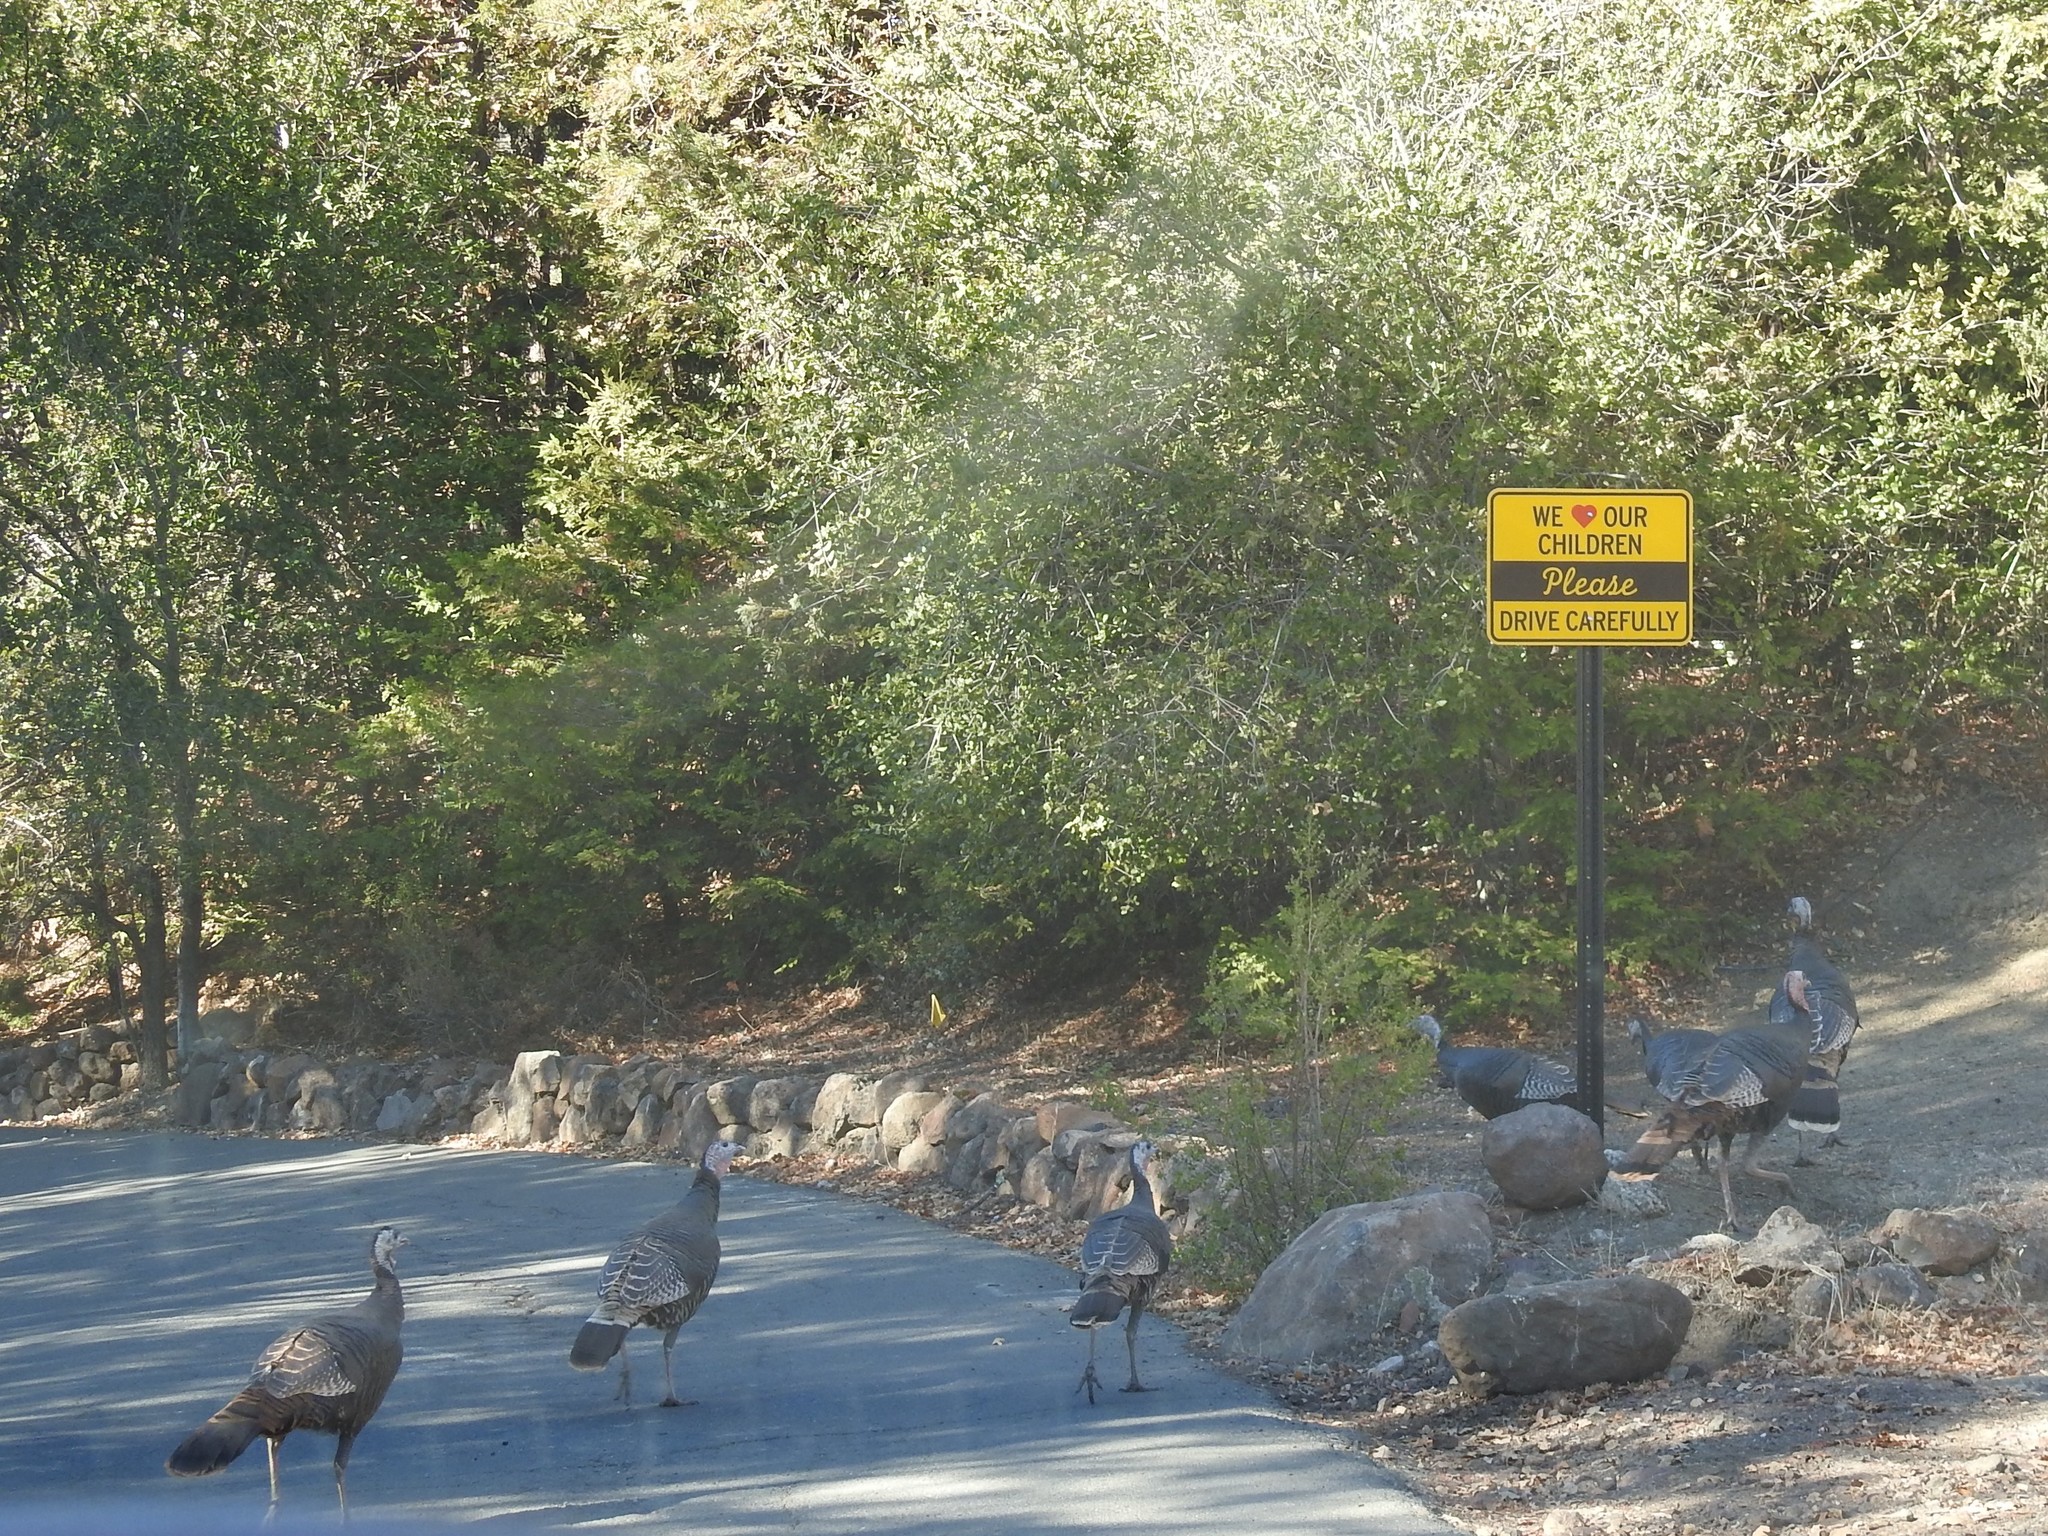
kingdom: Animalia
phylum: Chordata
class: Aves
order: Galliformes
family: Phasianidae
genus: Meleagris
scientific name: Meleagris gallopavo
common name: Wild turkey
